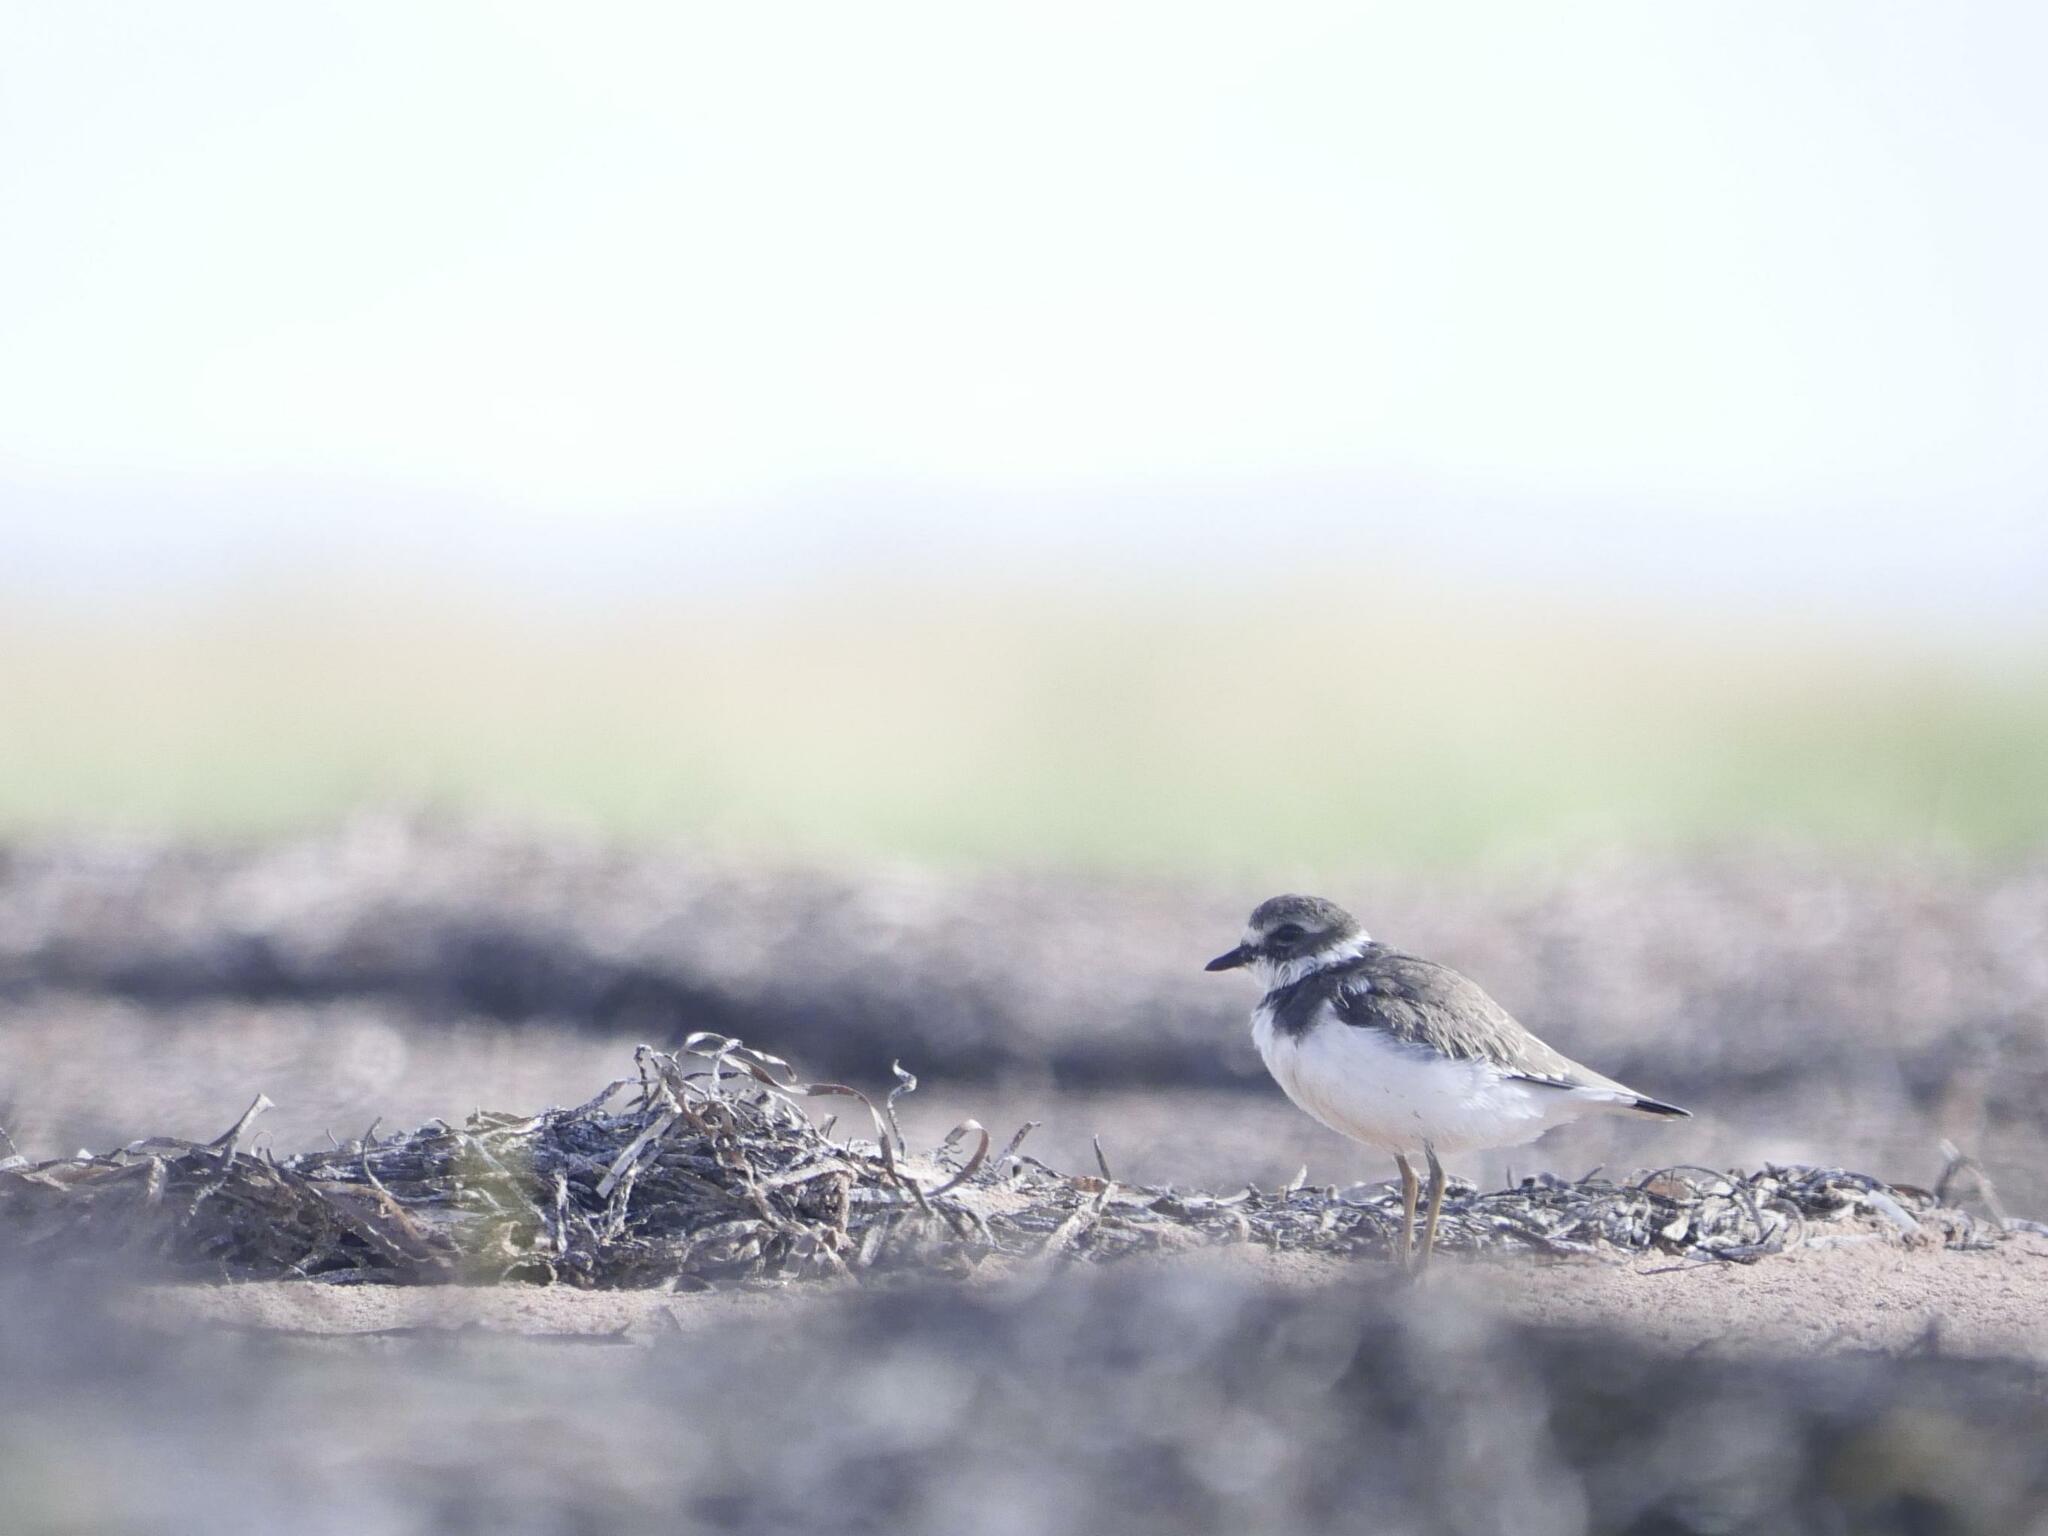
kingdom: Animalia
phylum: Chordata
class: Aves
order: Charadriiformes
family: Charadriidae
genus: Charadrius
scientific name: Charadrius semipalmatus
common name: Semipalmated plover
